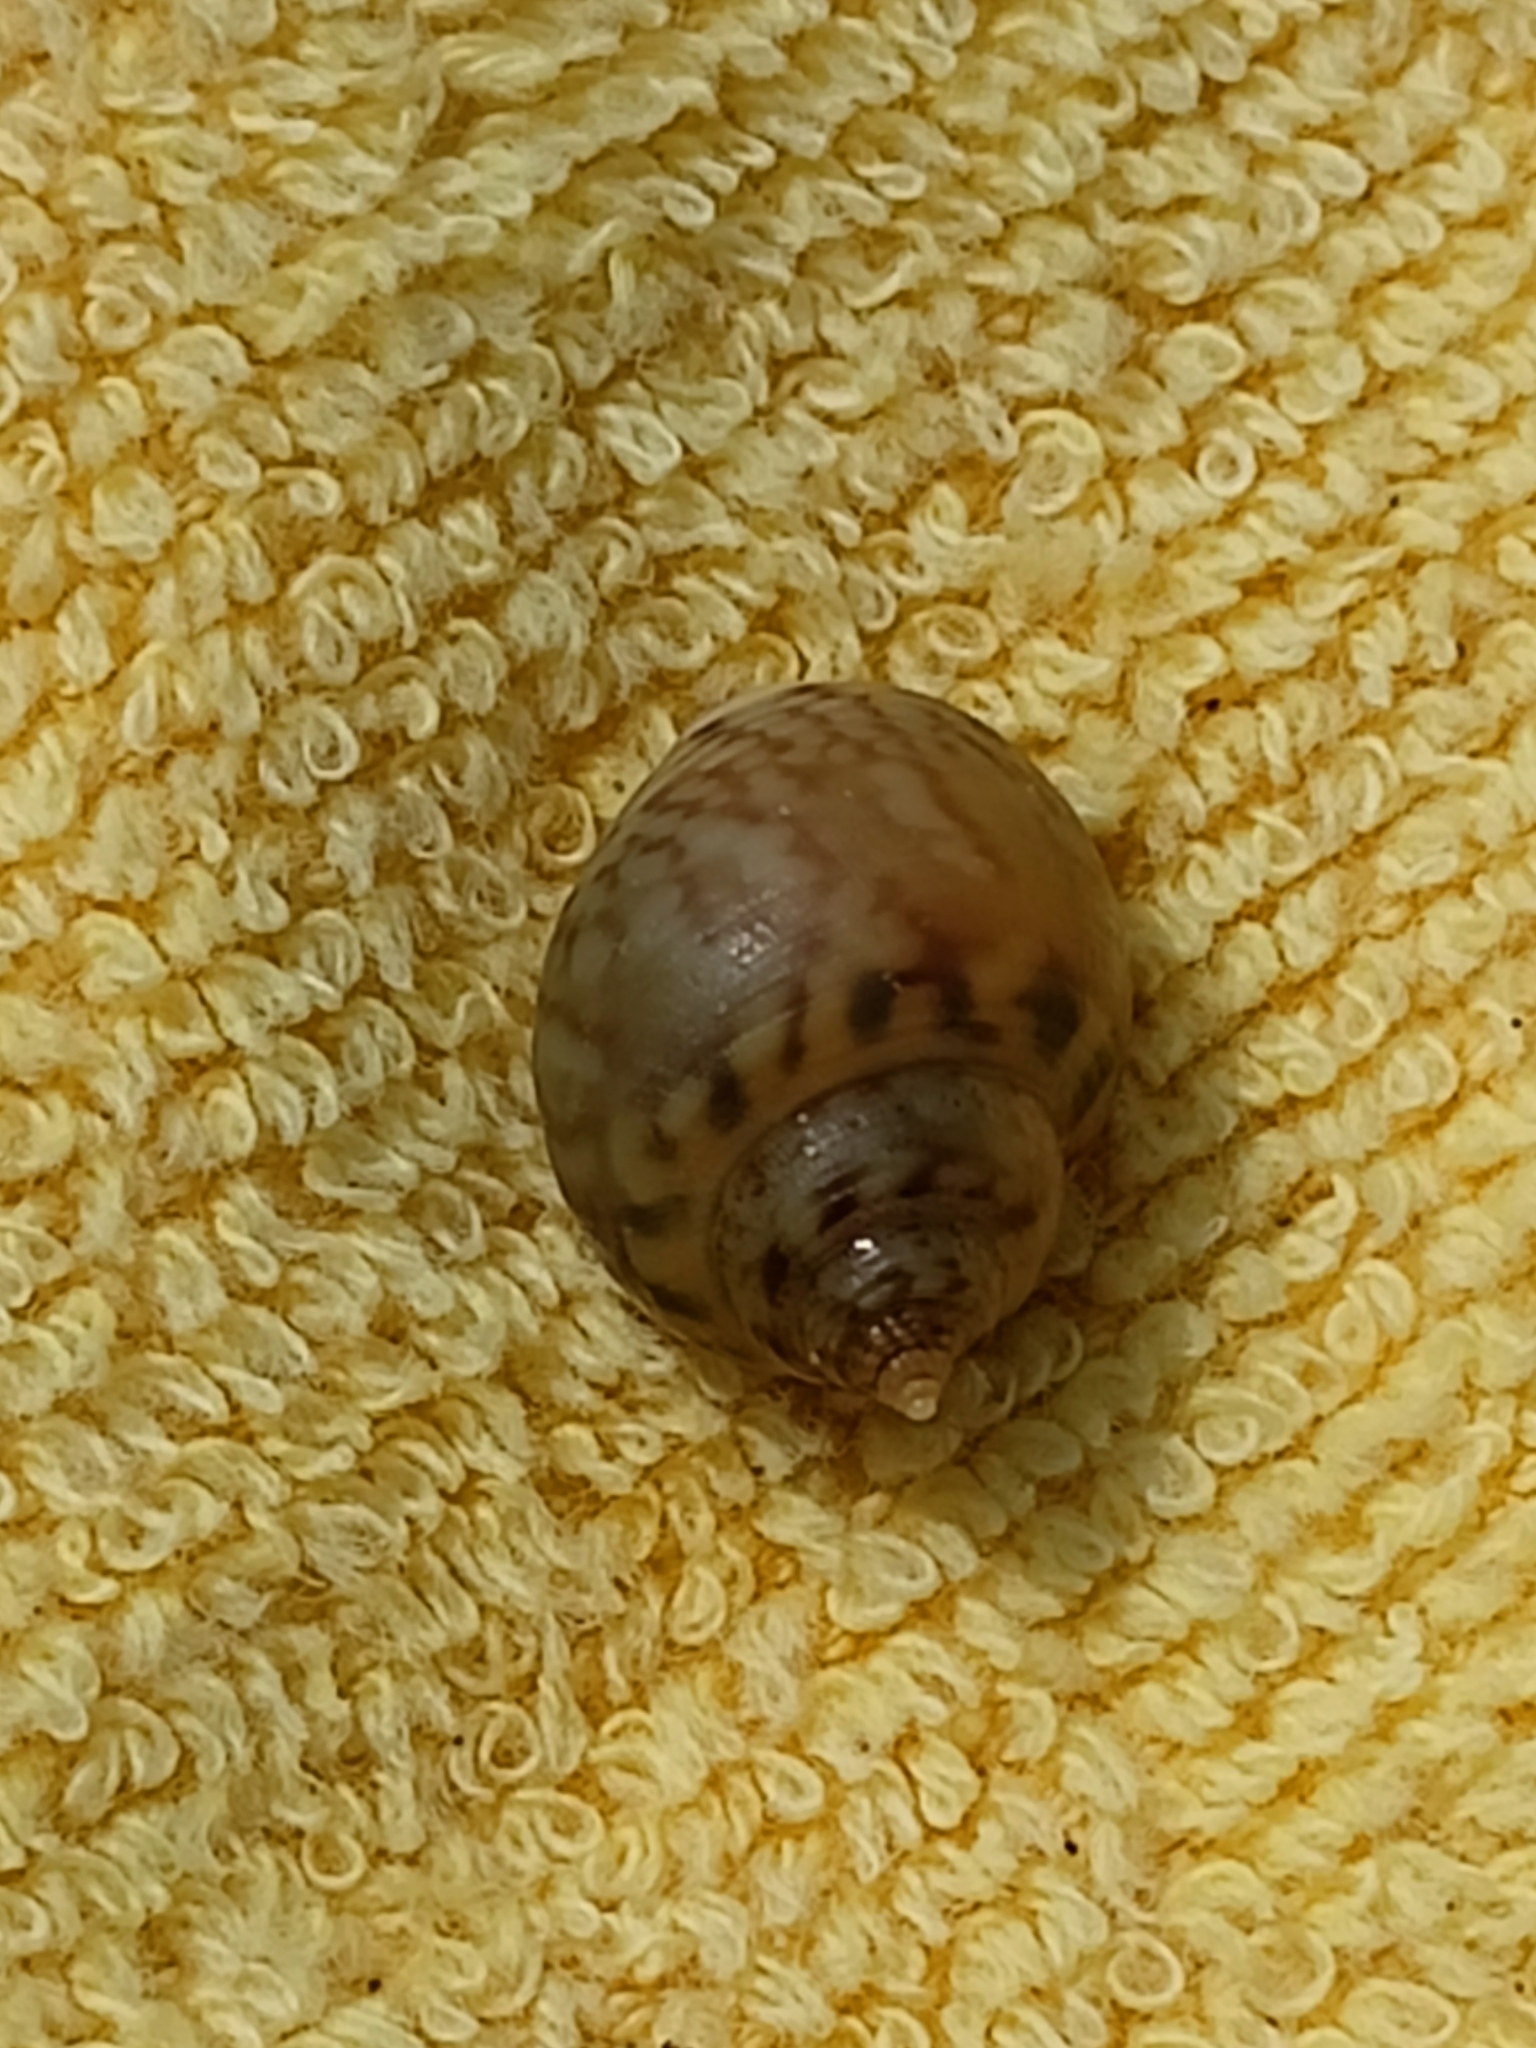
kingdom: Animalia
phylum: Mollusca
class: Gastropoda
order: Neogastropoda
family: Nassariidae
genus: Tritia
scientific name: Tritia mutabilis
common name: Mutable nassa
